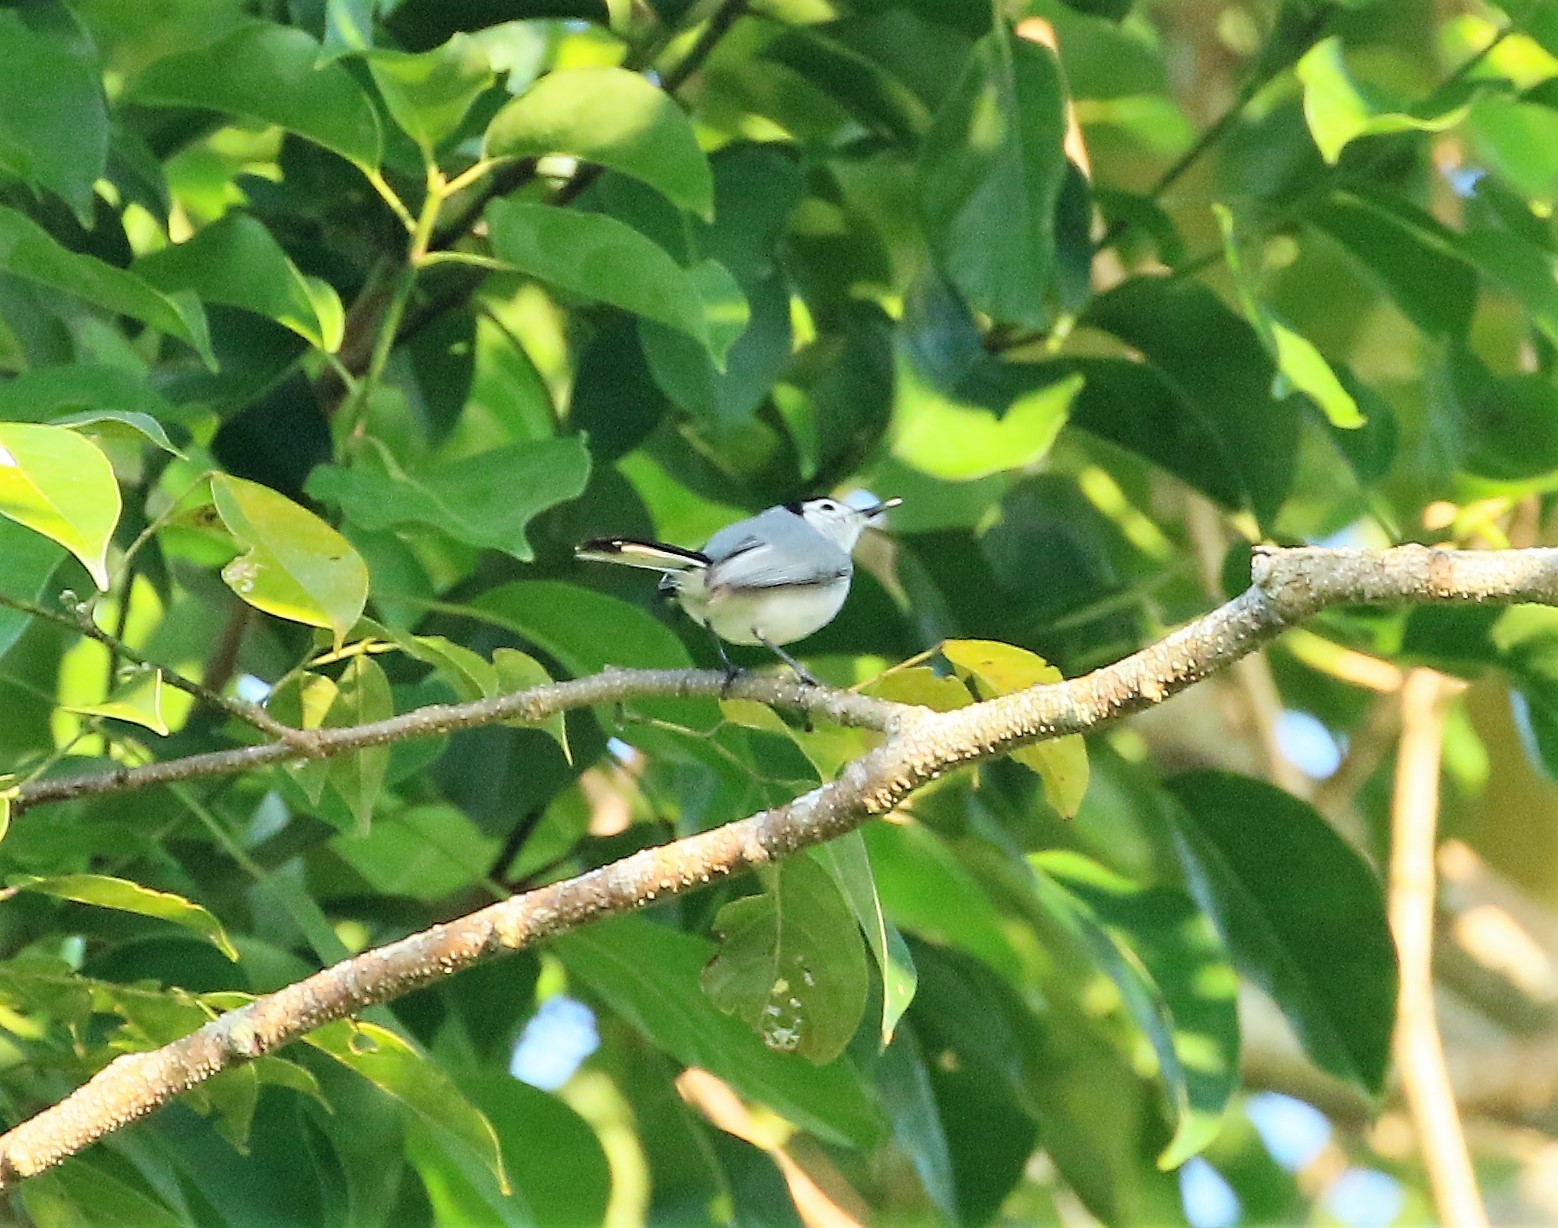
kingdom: Animalia
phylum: Chordata
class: Aves
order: Passeriformes
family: Polioptilidae
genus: Polioptila
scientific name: Polioptila plumbea
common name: Tropical gnatcatcher
